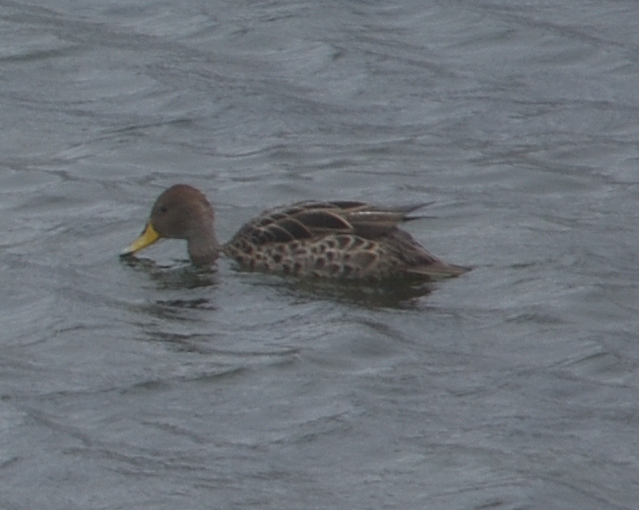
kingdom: Animalia
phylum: Chordata
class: Aves
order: Anseriformes
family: Anatidae
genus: Anas
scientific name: Anas georgica
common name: Yellow-billed pintail
